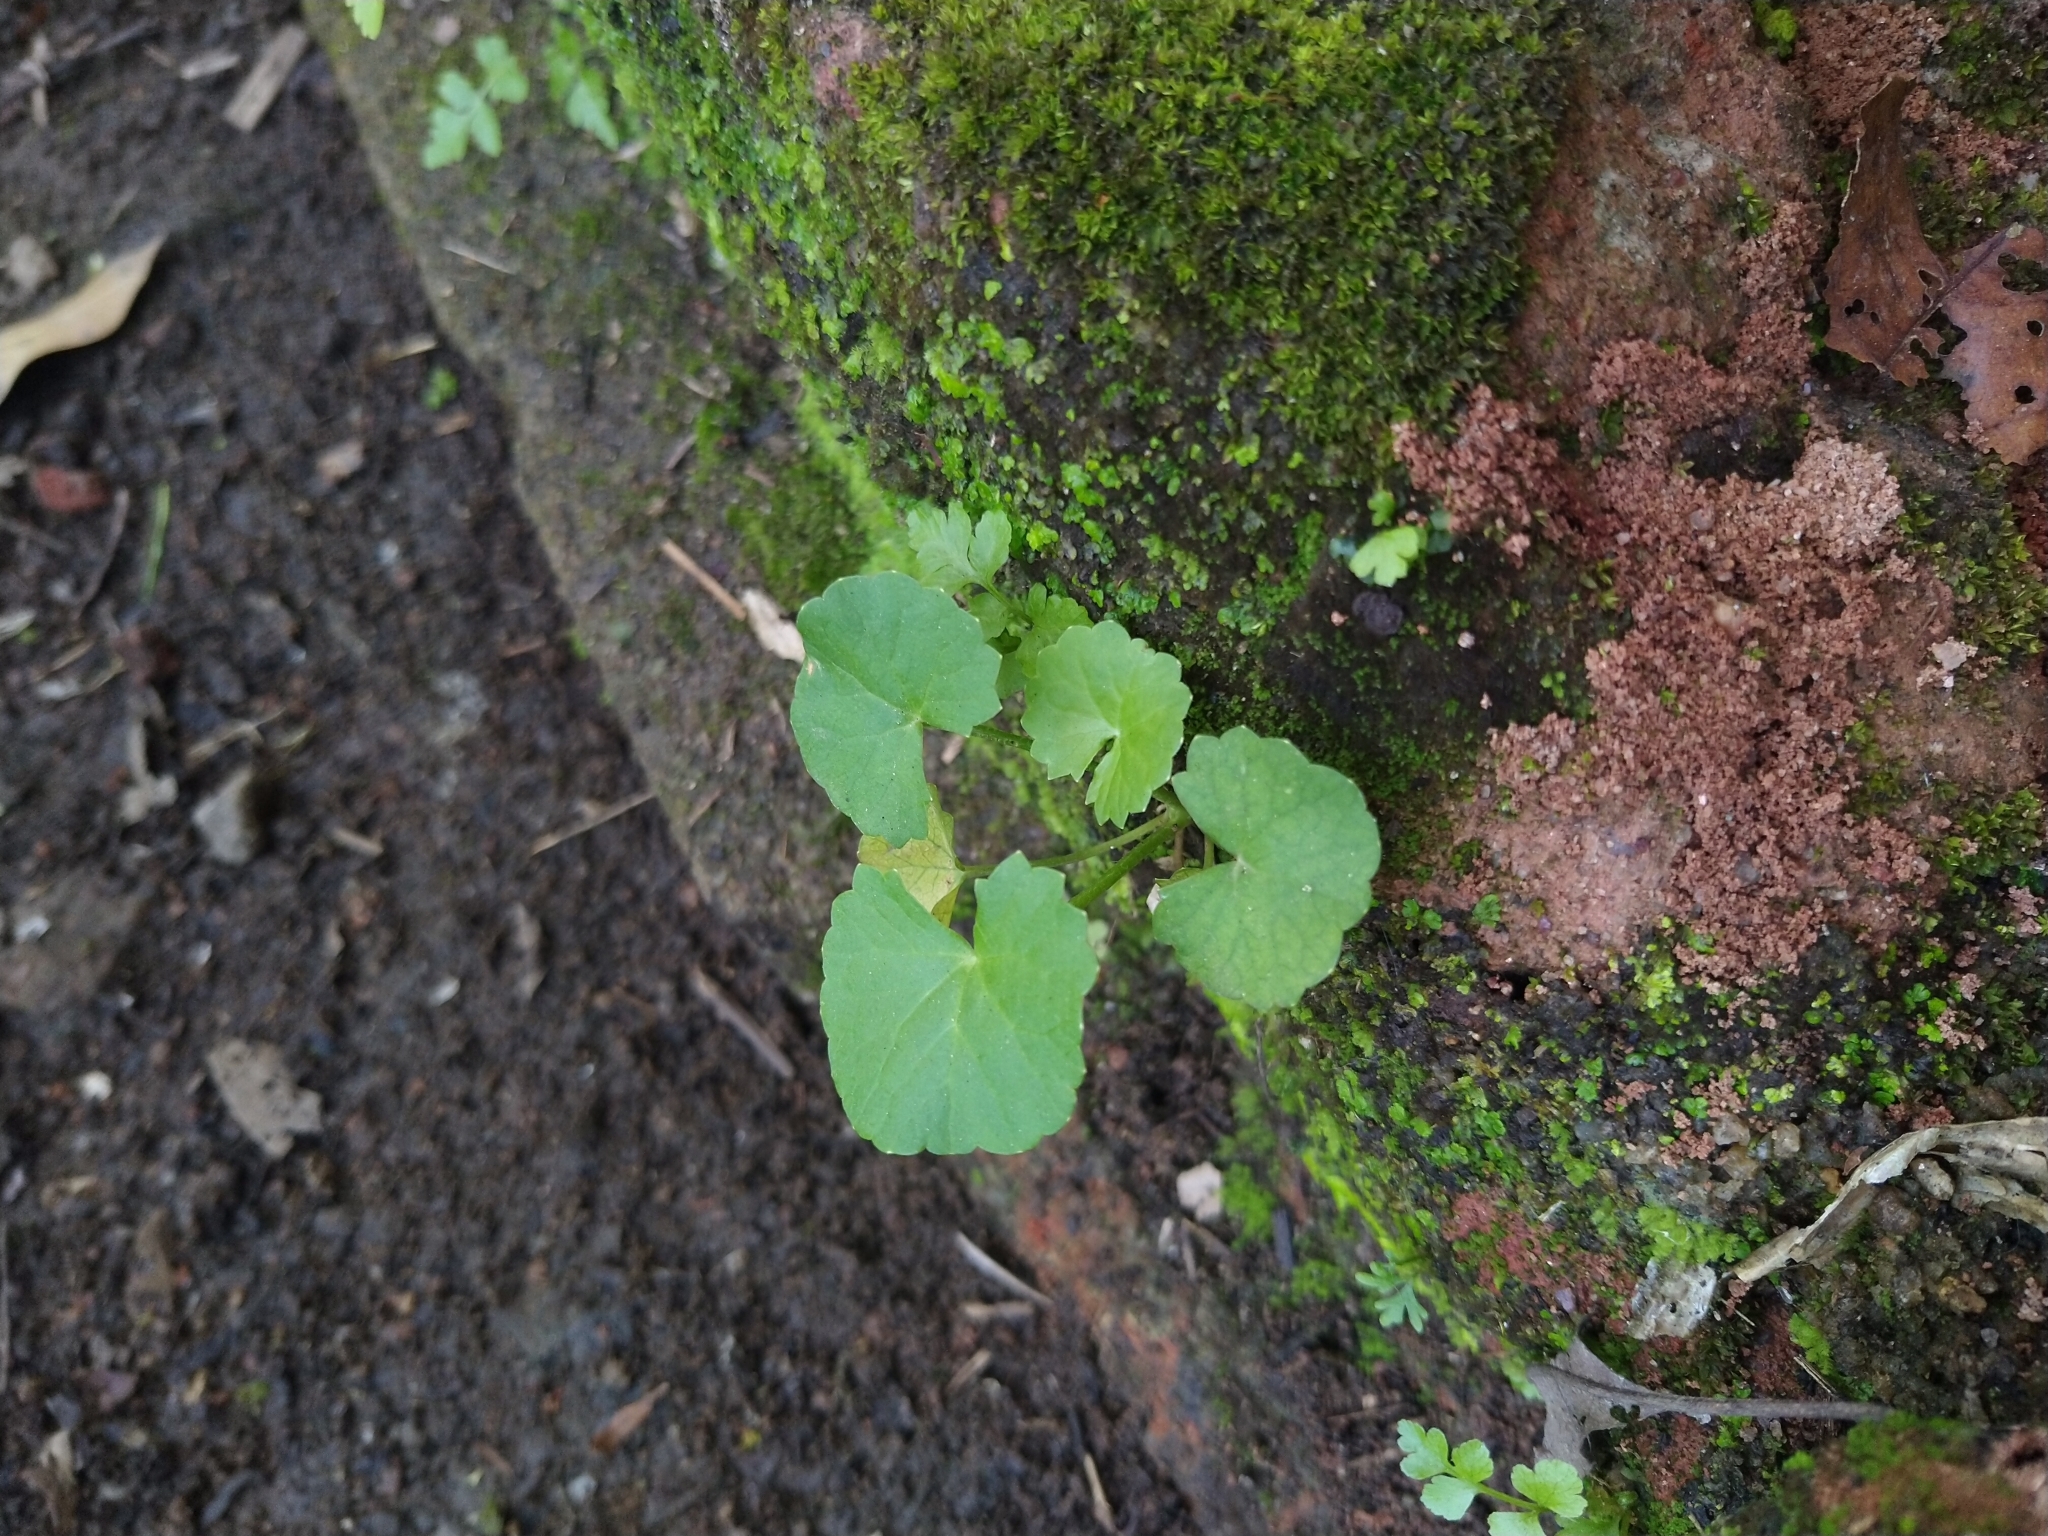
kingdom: Plantae
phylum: Tracheophyta
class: Magnoliopsida
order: Apiales
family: Apiaceae
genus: Centella
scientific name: Centella asiatica
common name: Spadeleaf
